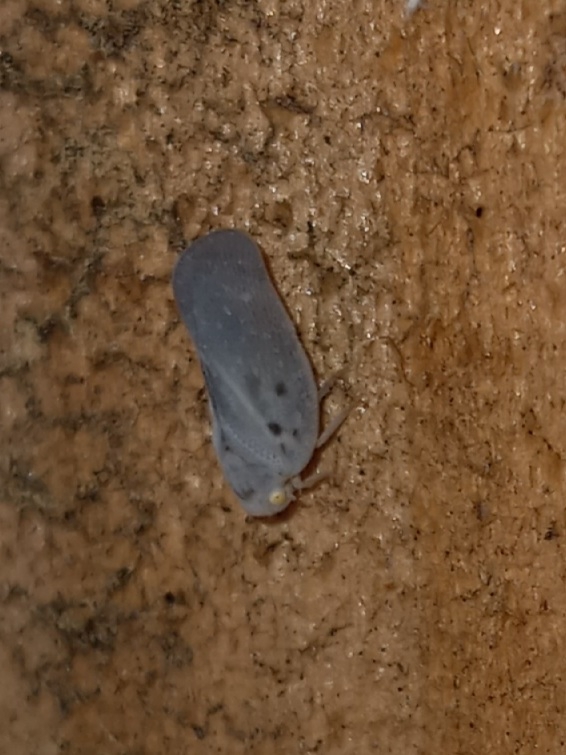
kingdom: Animalia
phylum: Arthropoda
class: Insecta
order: Hemiptera
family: Flatidae
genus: Metcalfa
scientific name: Metcalfa pruinosa
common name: Citrus flatid planthopper
